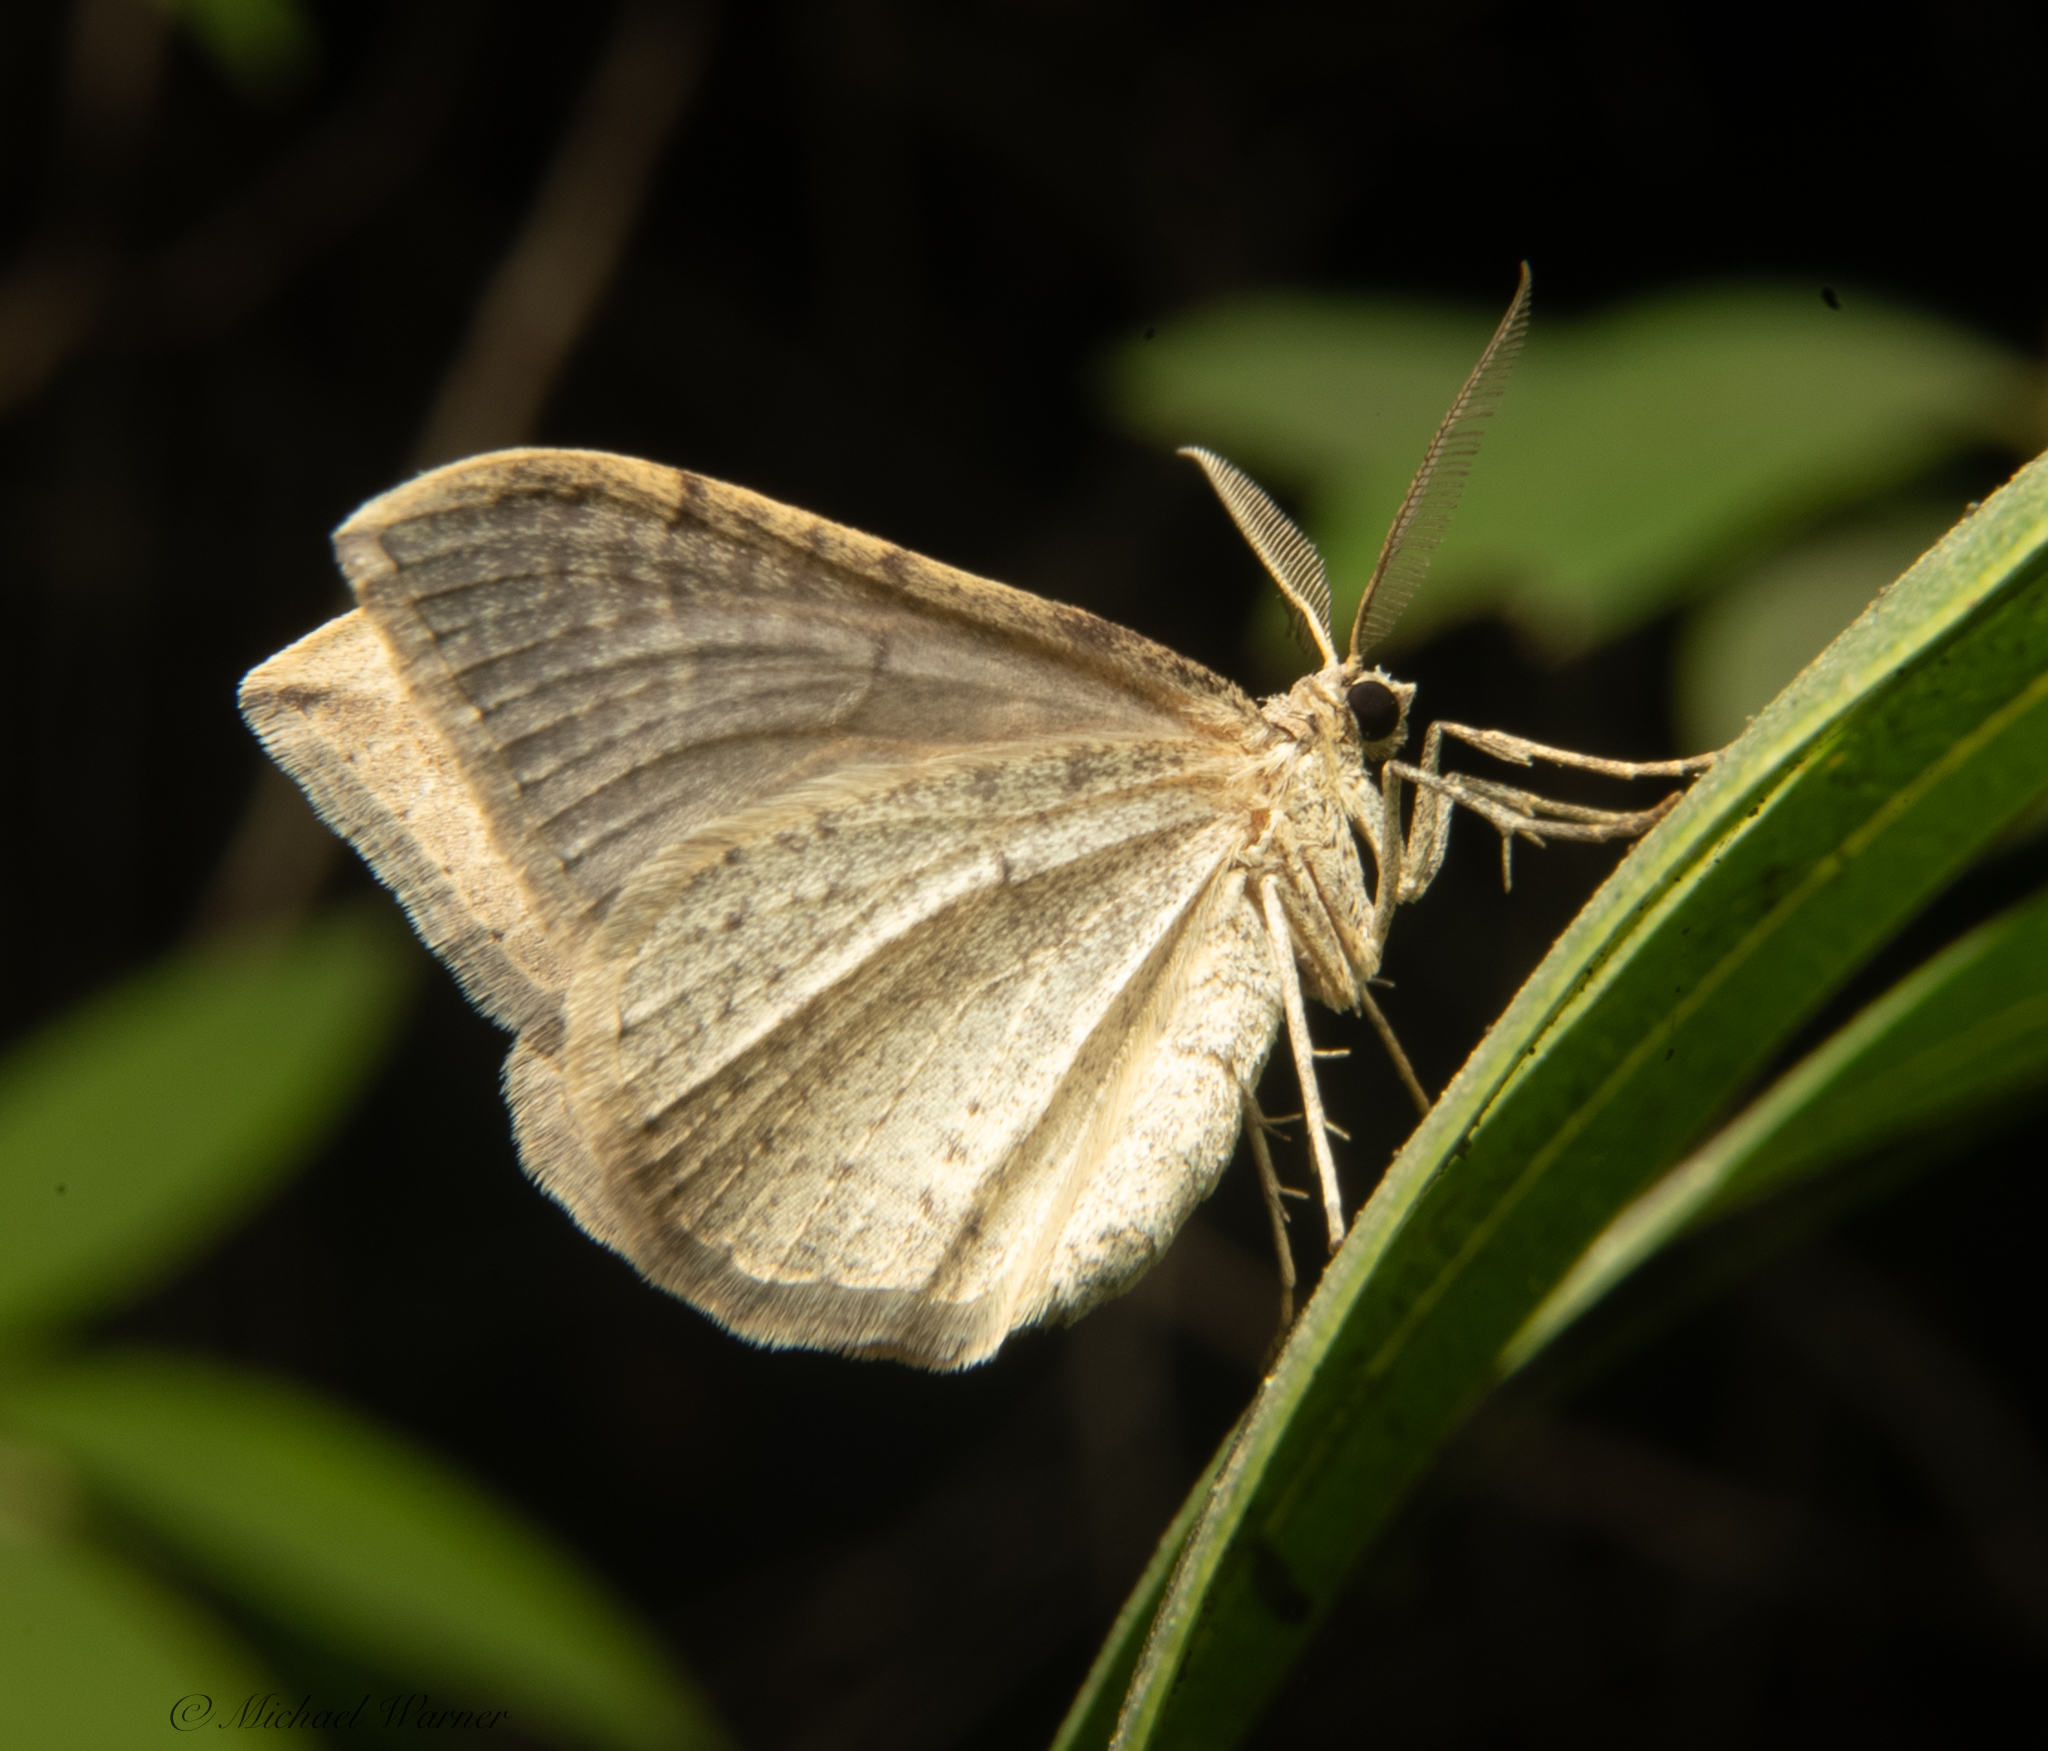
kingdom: Animalia
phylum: Arthropoda
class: Insecta
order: Lepidoptera
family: Geometridae
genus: Zenophleps
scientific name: Zenophleps lignicolorata
